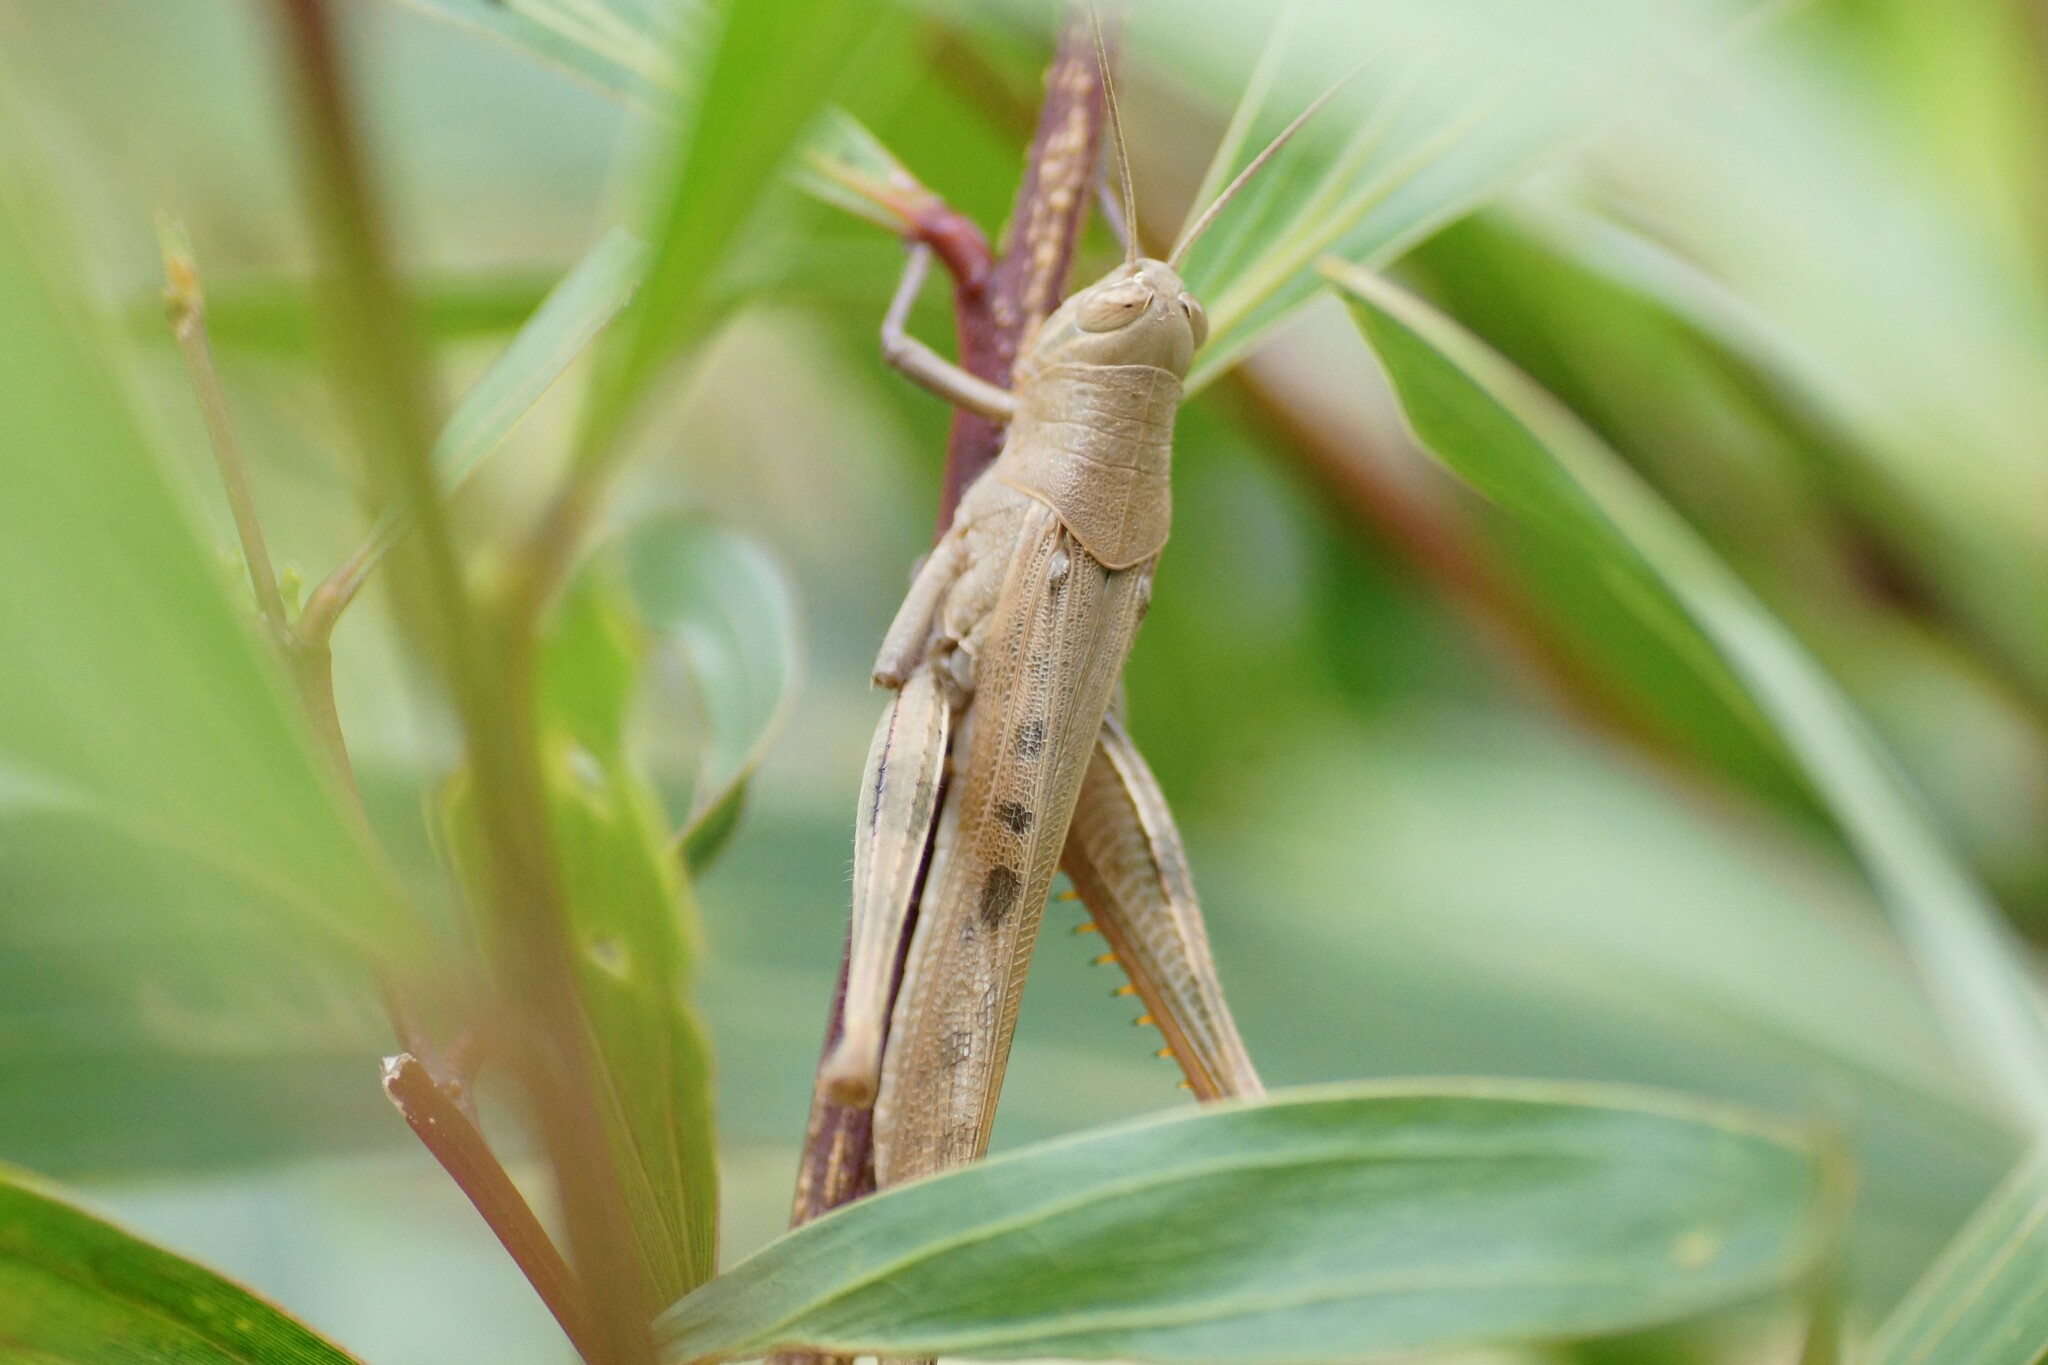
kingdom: Animalia
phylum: Arthropoda
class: Insecta
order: Orthoptera
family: Acrididae
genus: Austracris
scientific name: Austracris basalis
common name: Spotted spur-throated locust
